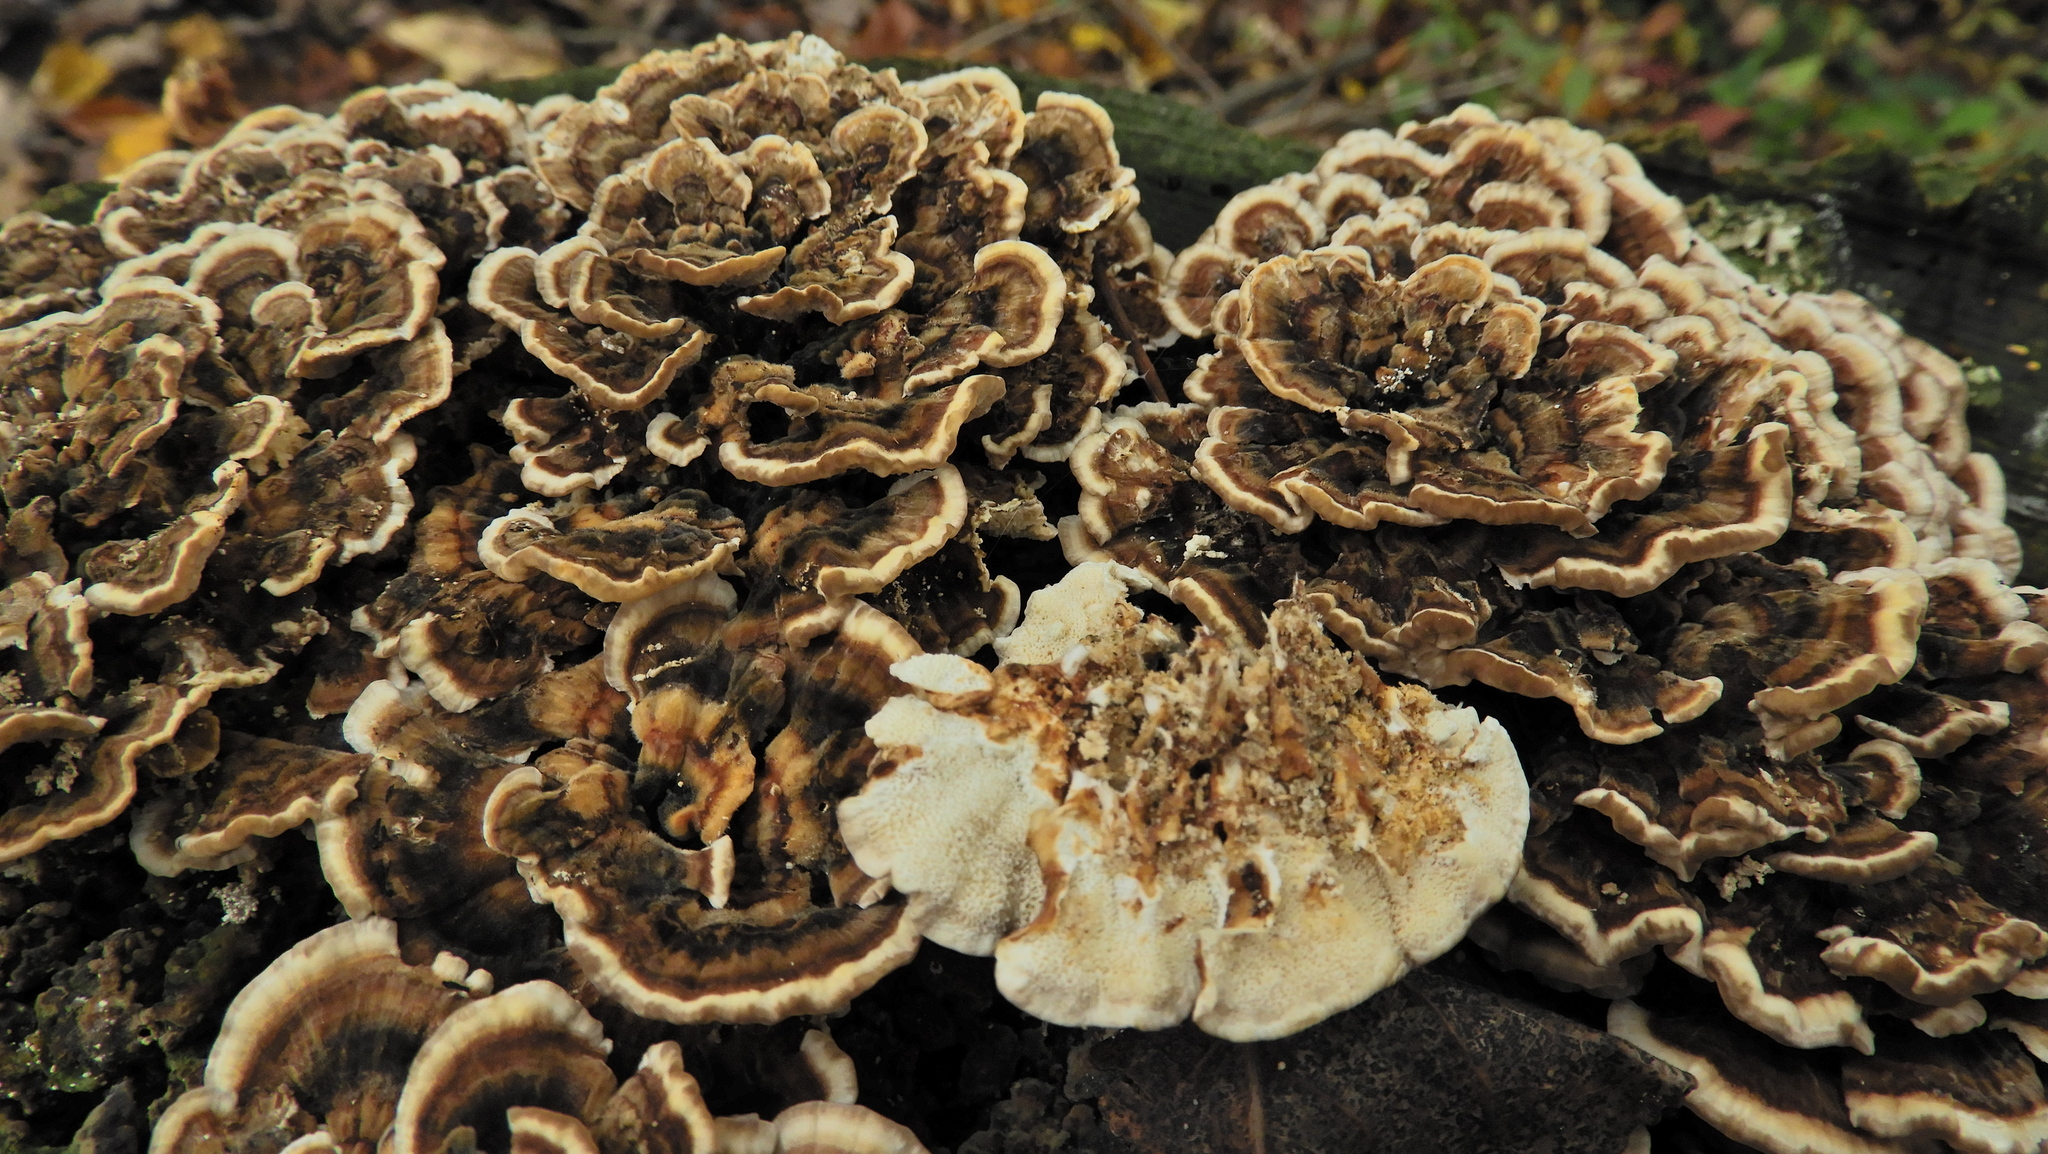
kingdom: Fungi
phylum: Basidiomycota
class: Agaricomycetes
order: Polyporales
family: Polyporaceae
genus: Trametes
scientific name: Trametes versicolor
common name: Turkeytail
